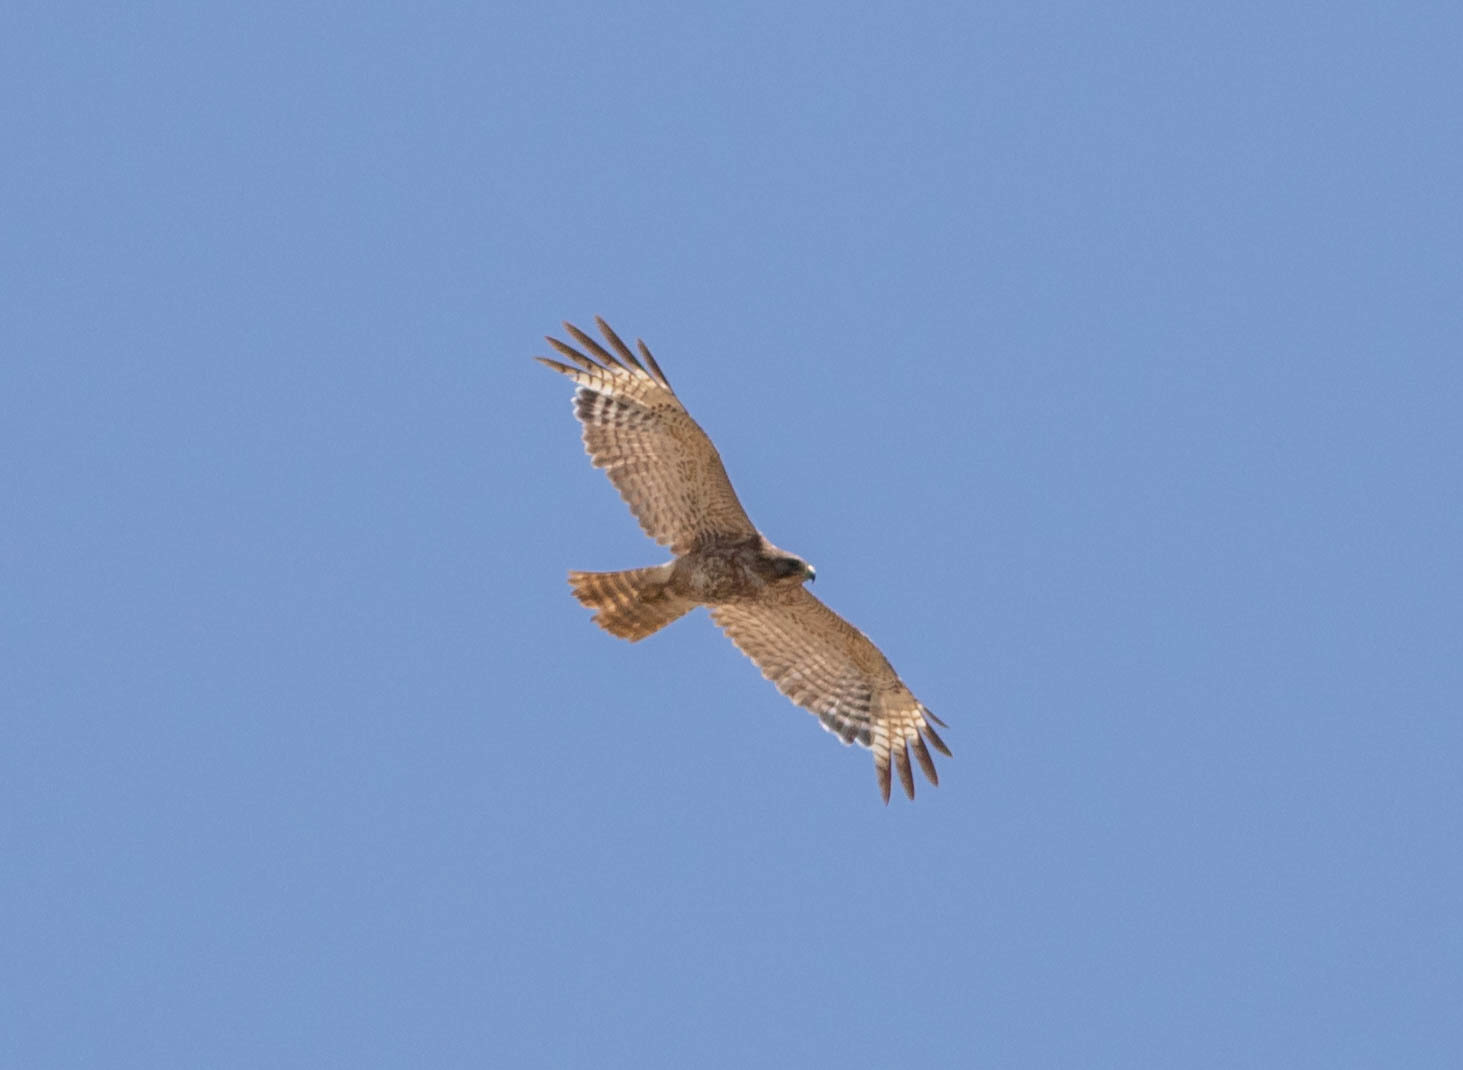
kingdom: Animalia
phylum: Chordata
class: Aves
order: Accipitriformes
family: Accipitridae
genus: Buteo
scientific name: Buteo lineatus
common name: Red-shouldered hawk
